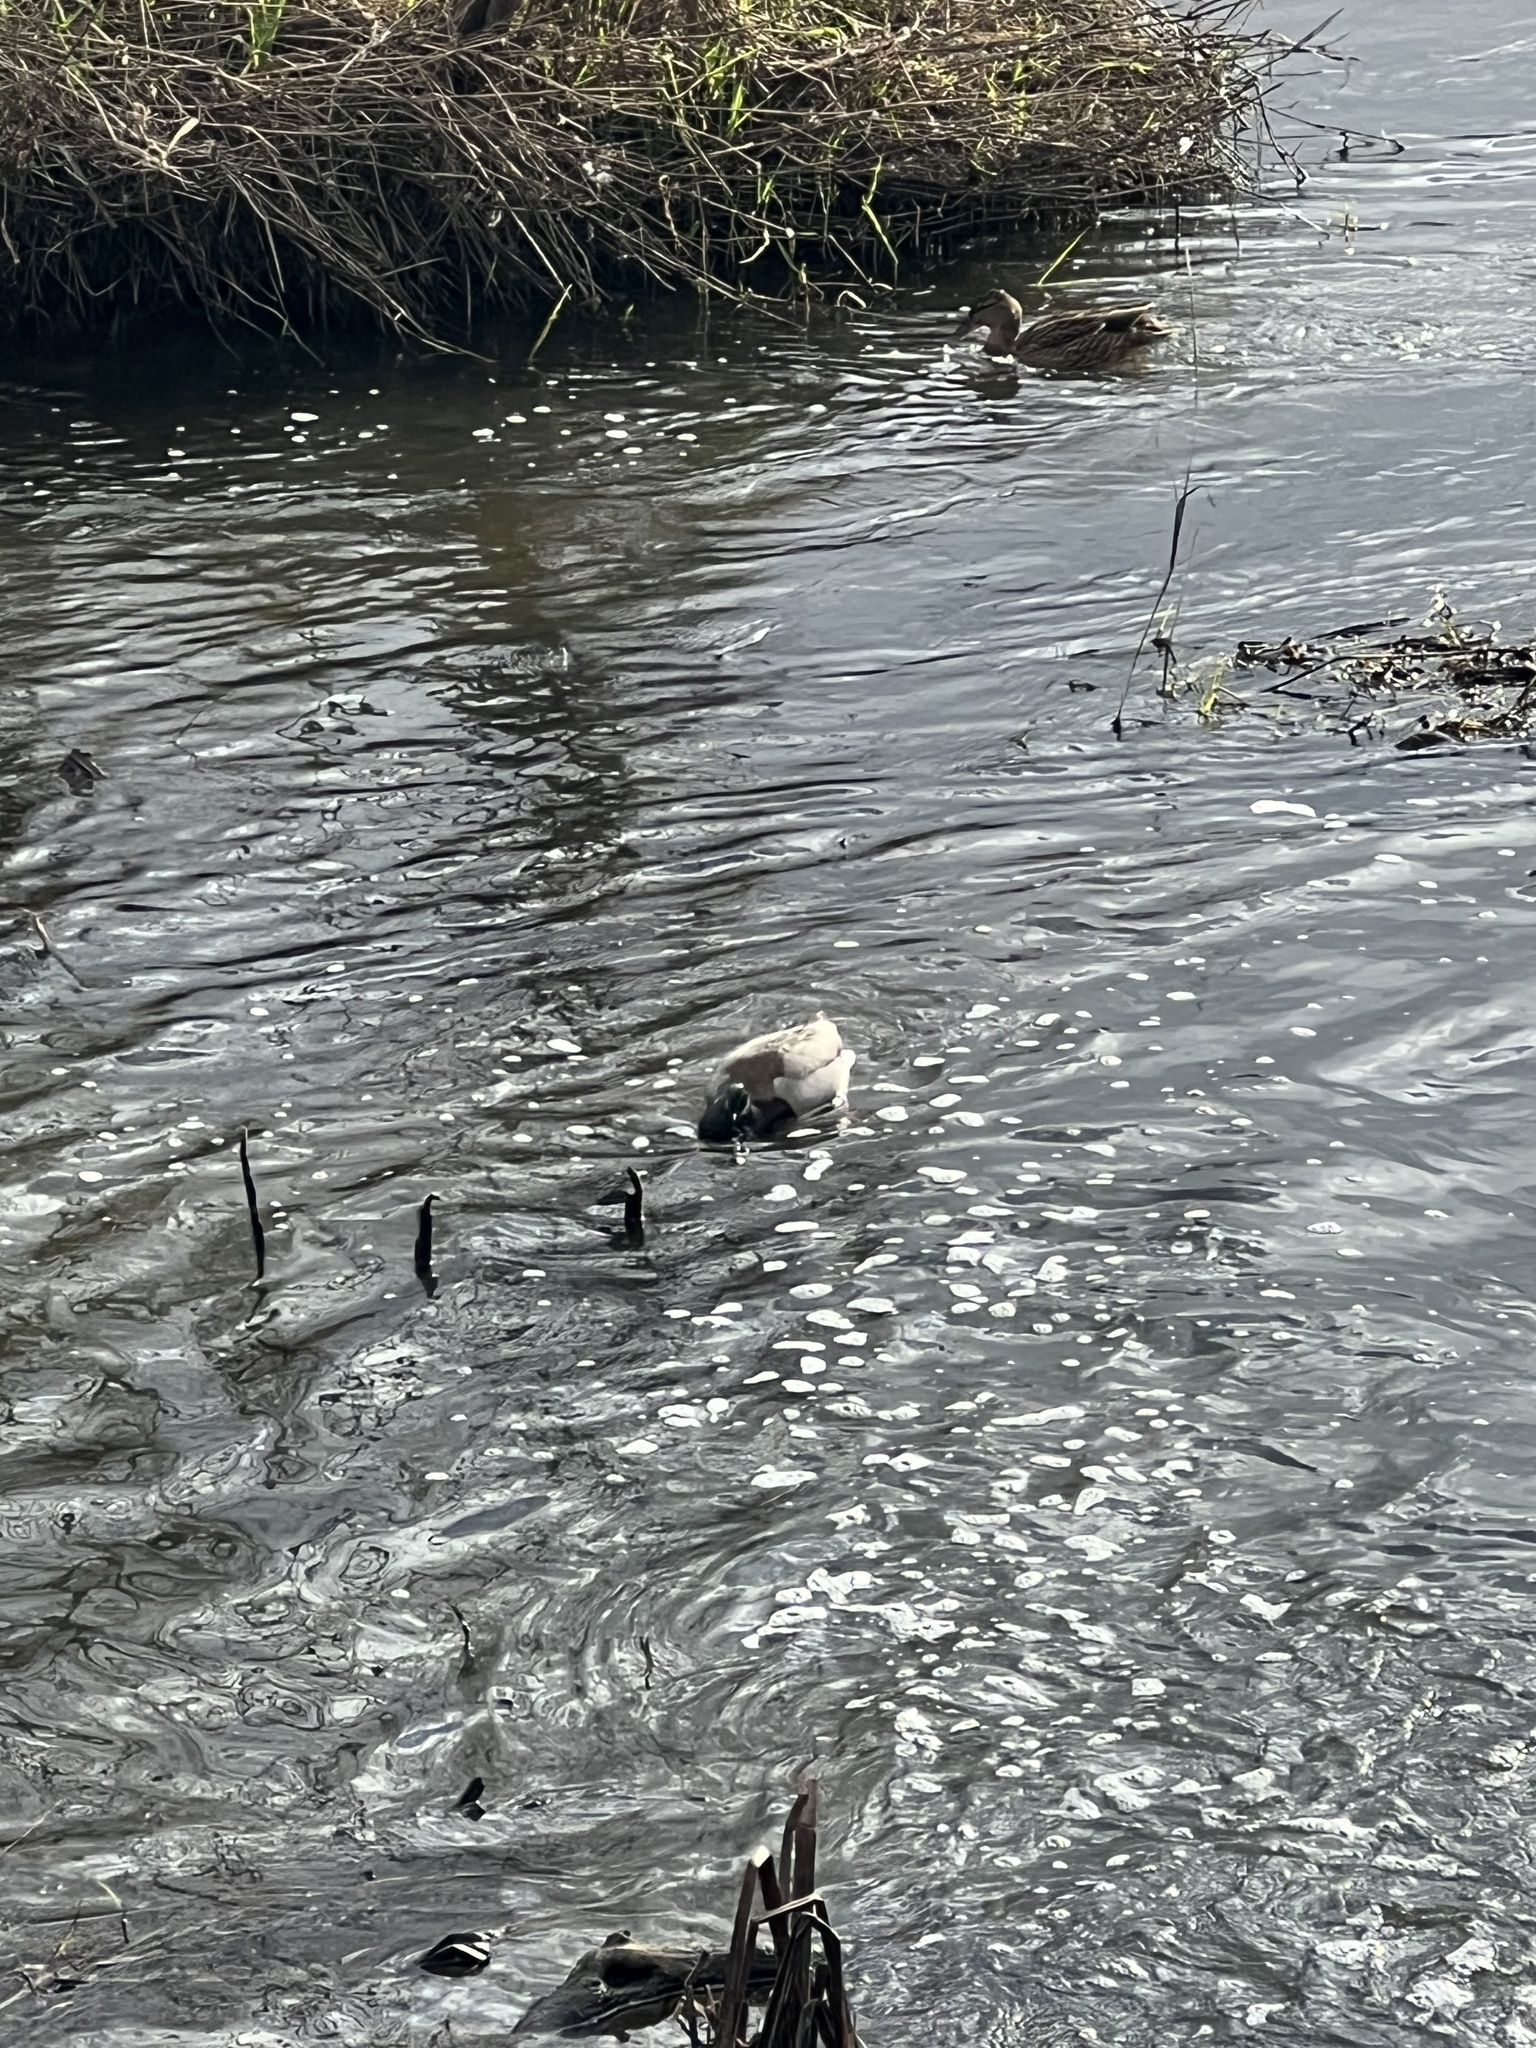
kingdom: Animalia
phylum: Chordata
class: Aves
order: Anseriformes
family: Anatidae
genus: Anas
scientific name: Anas platyrhynchos
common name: Mallard
